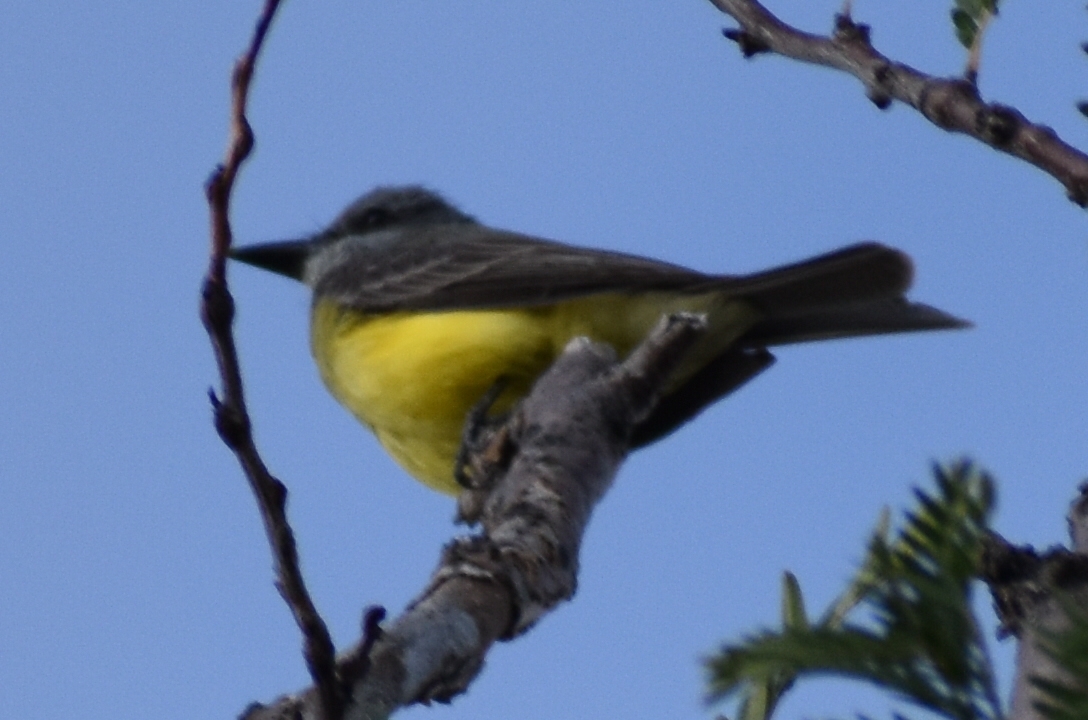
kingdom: Animalia
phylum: Chordata
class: Aves
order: Passeriformes
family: Tyrannidae
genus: Tyrannus
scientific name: Tyrannus melancholicus
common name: Tropical kingbird
